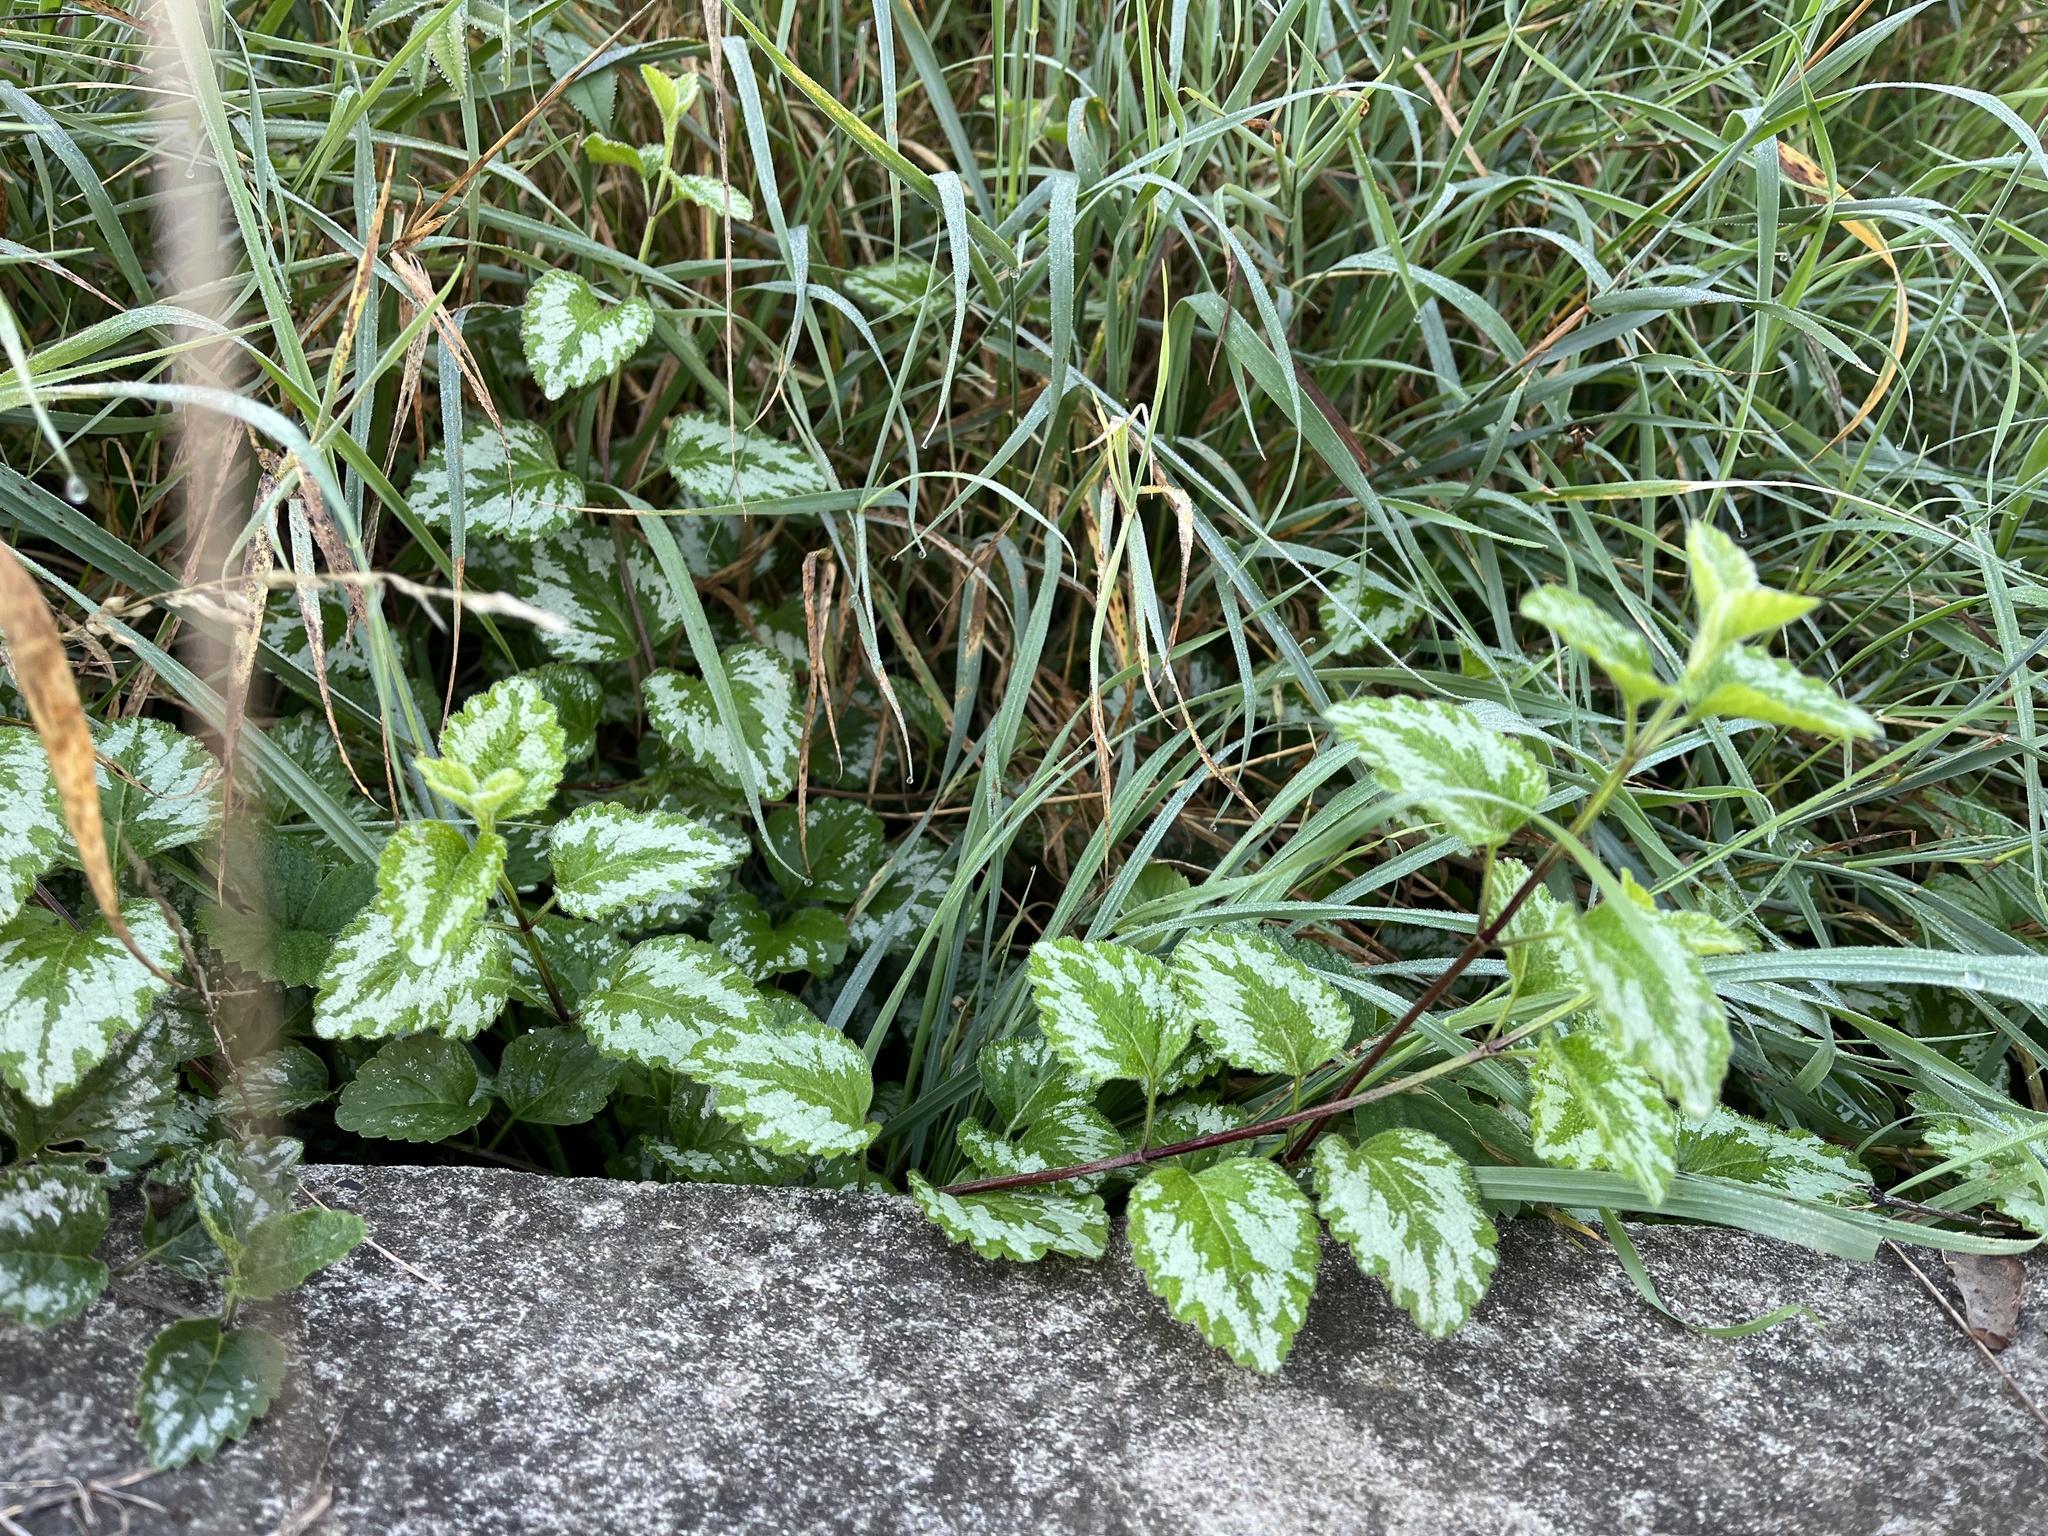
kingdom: Plantae
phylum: Tracheophyta
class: Magnoliopsida
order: Lamiales
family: Lamiaceae
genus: Lamium
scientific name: Lamium galeobdolon
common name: Yellow archangel
